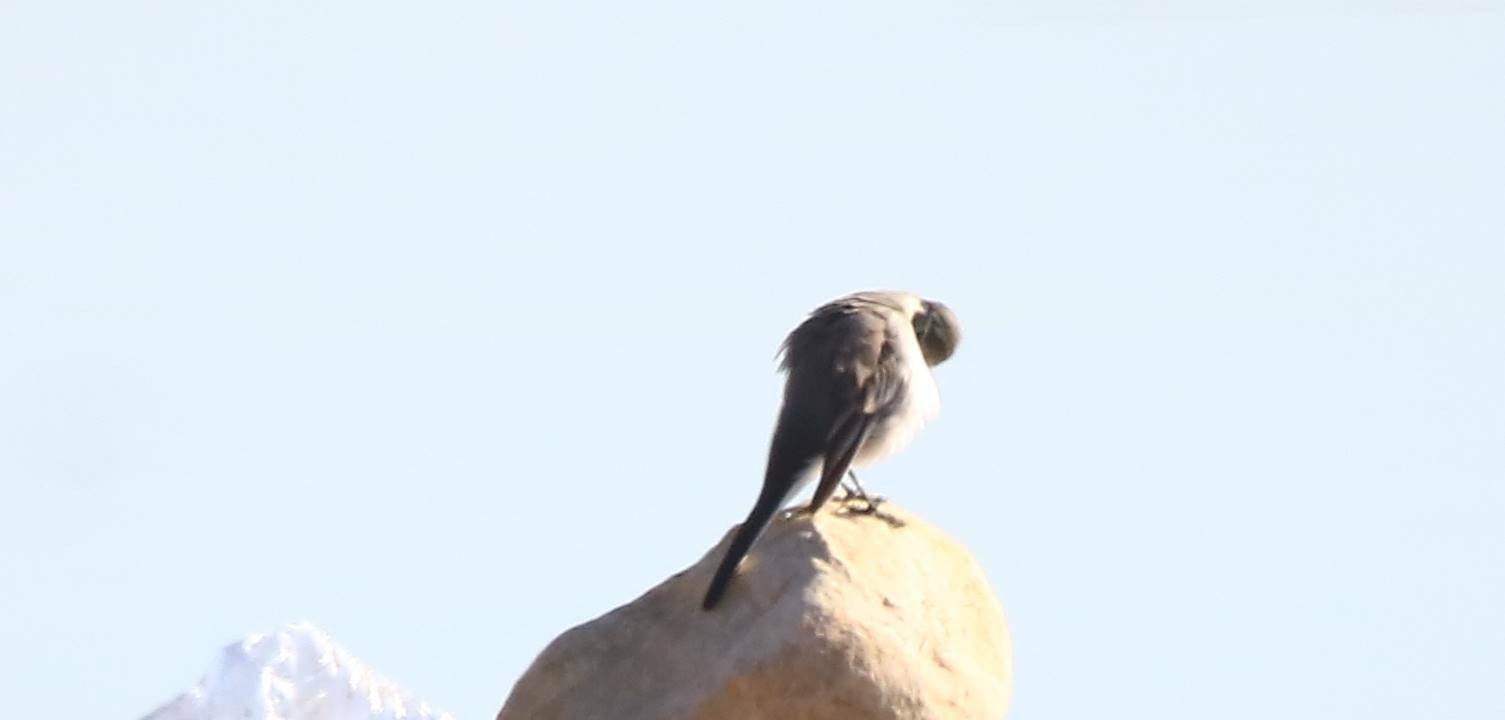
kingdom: Animalia
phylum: Chordata
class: Aves
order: Passeriformes
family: Motacillidae
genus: Motacilla
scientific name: Motacilla alba
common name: White wagtail
